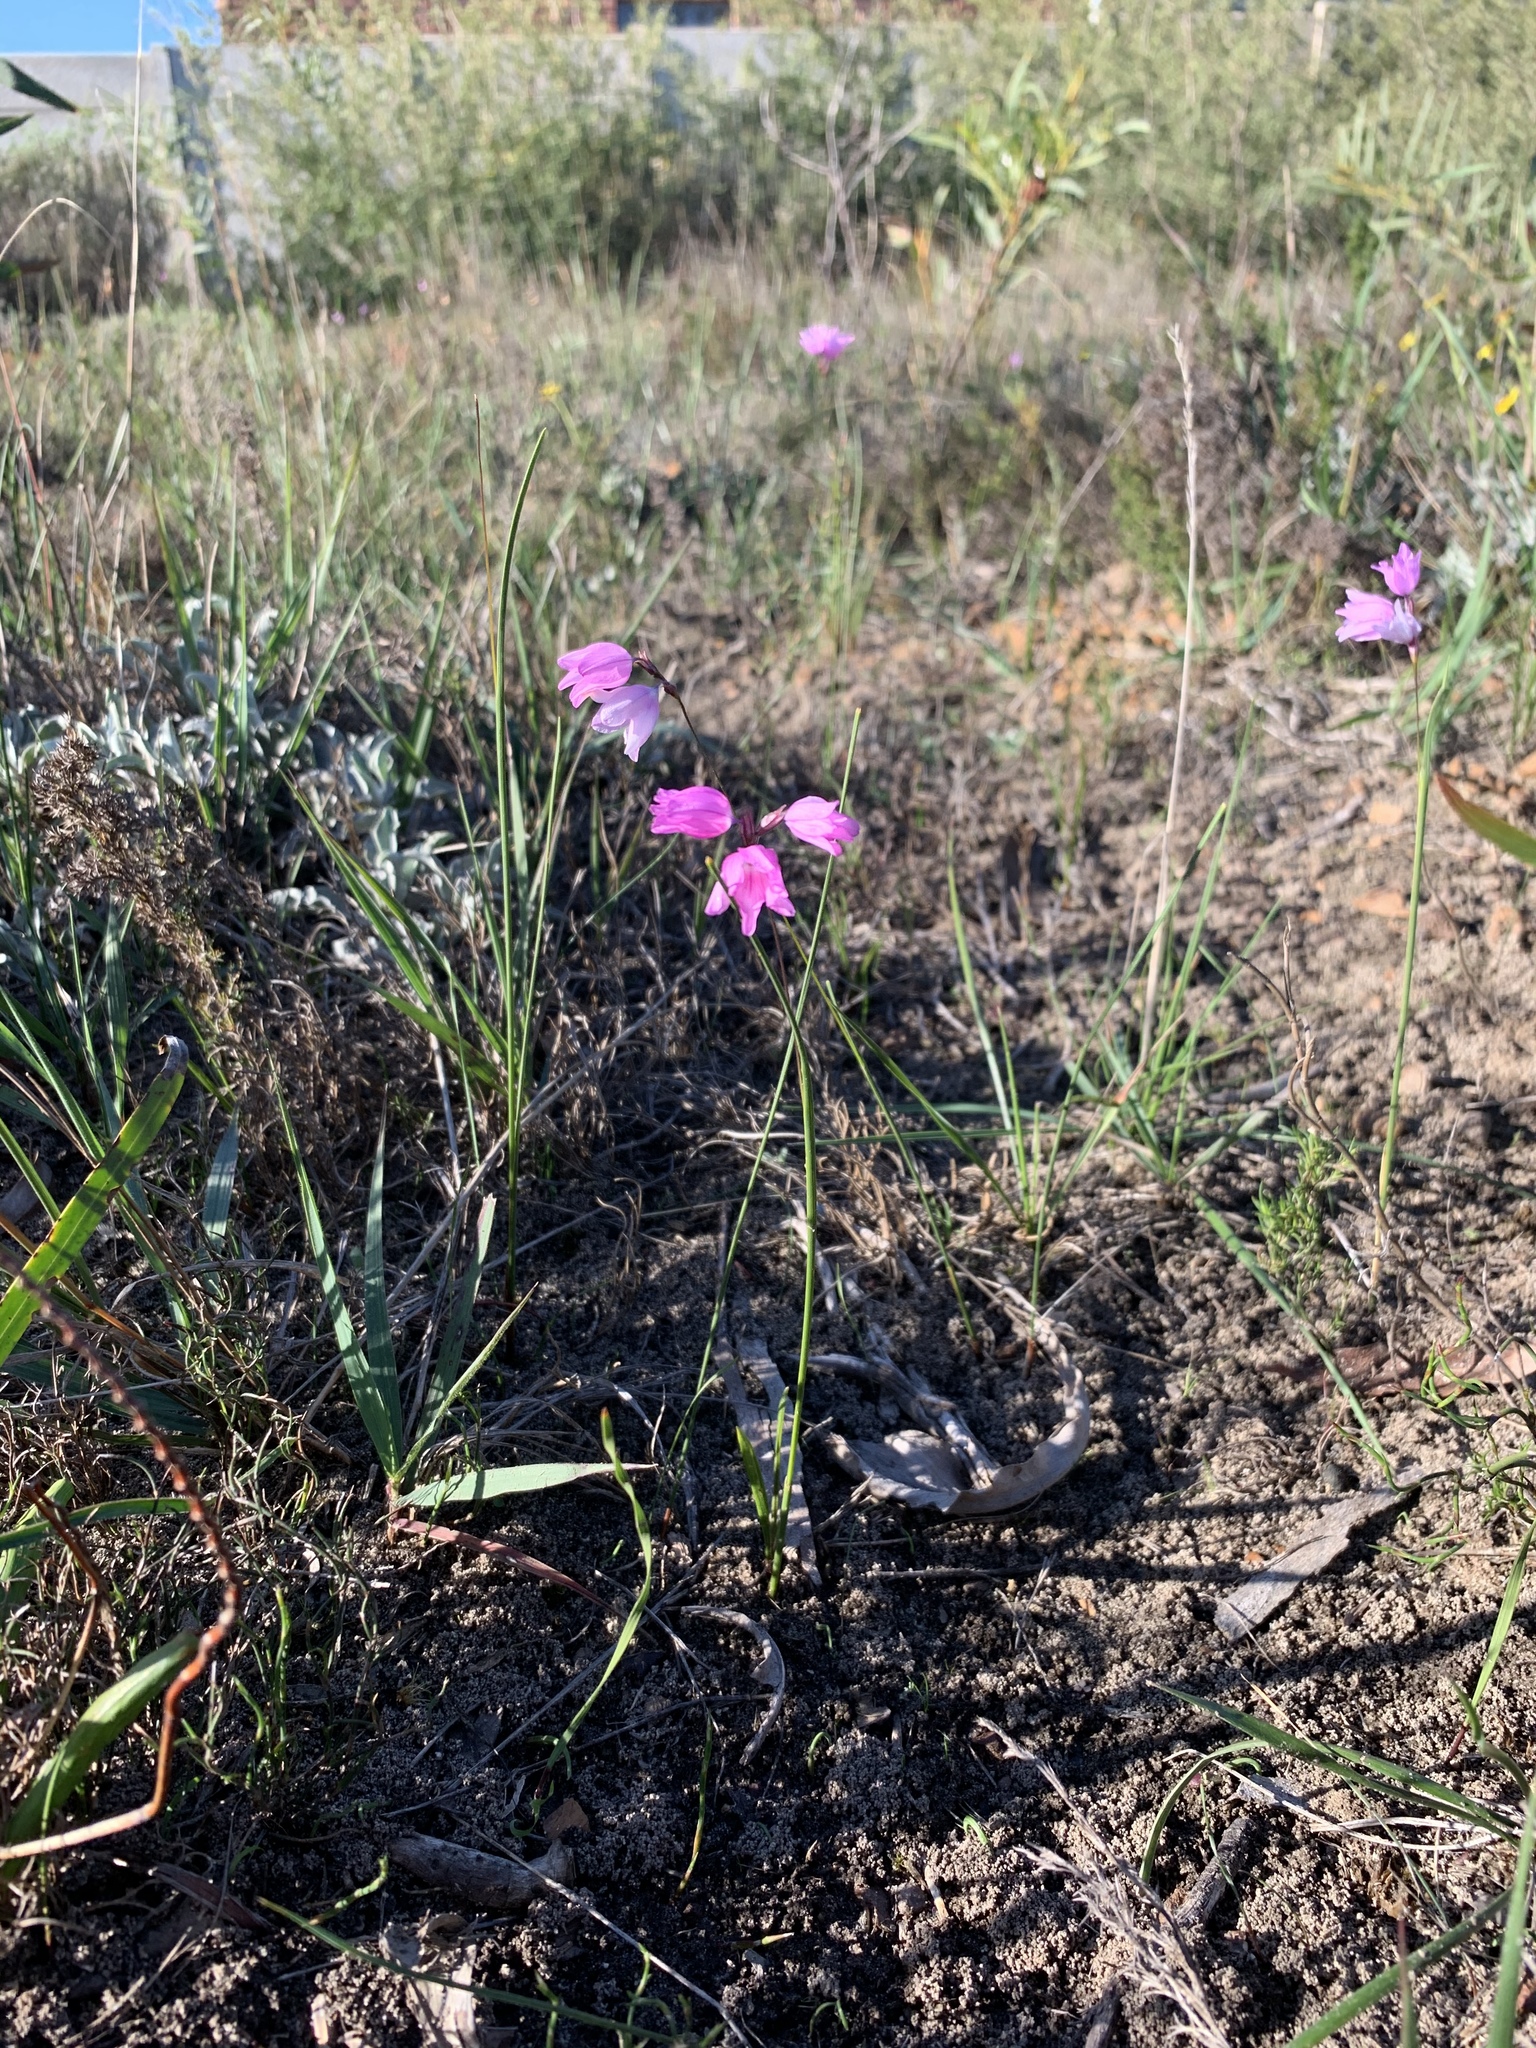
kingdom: Plantae
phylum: Tracheophyta
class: Liliopsida
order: Asparagales
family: Iridaceae
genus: Ixia
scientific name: Ixia micrandra
